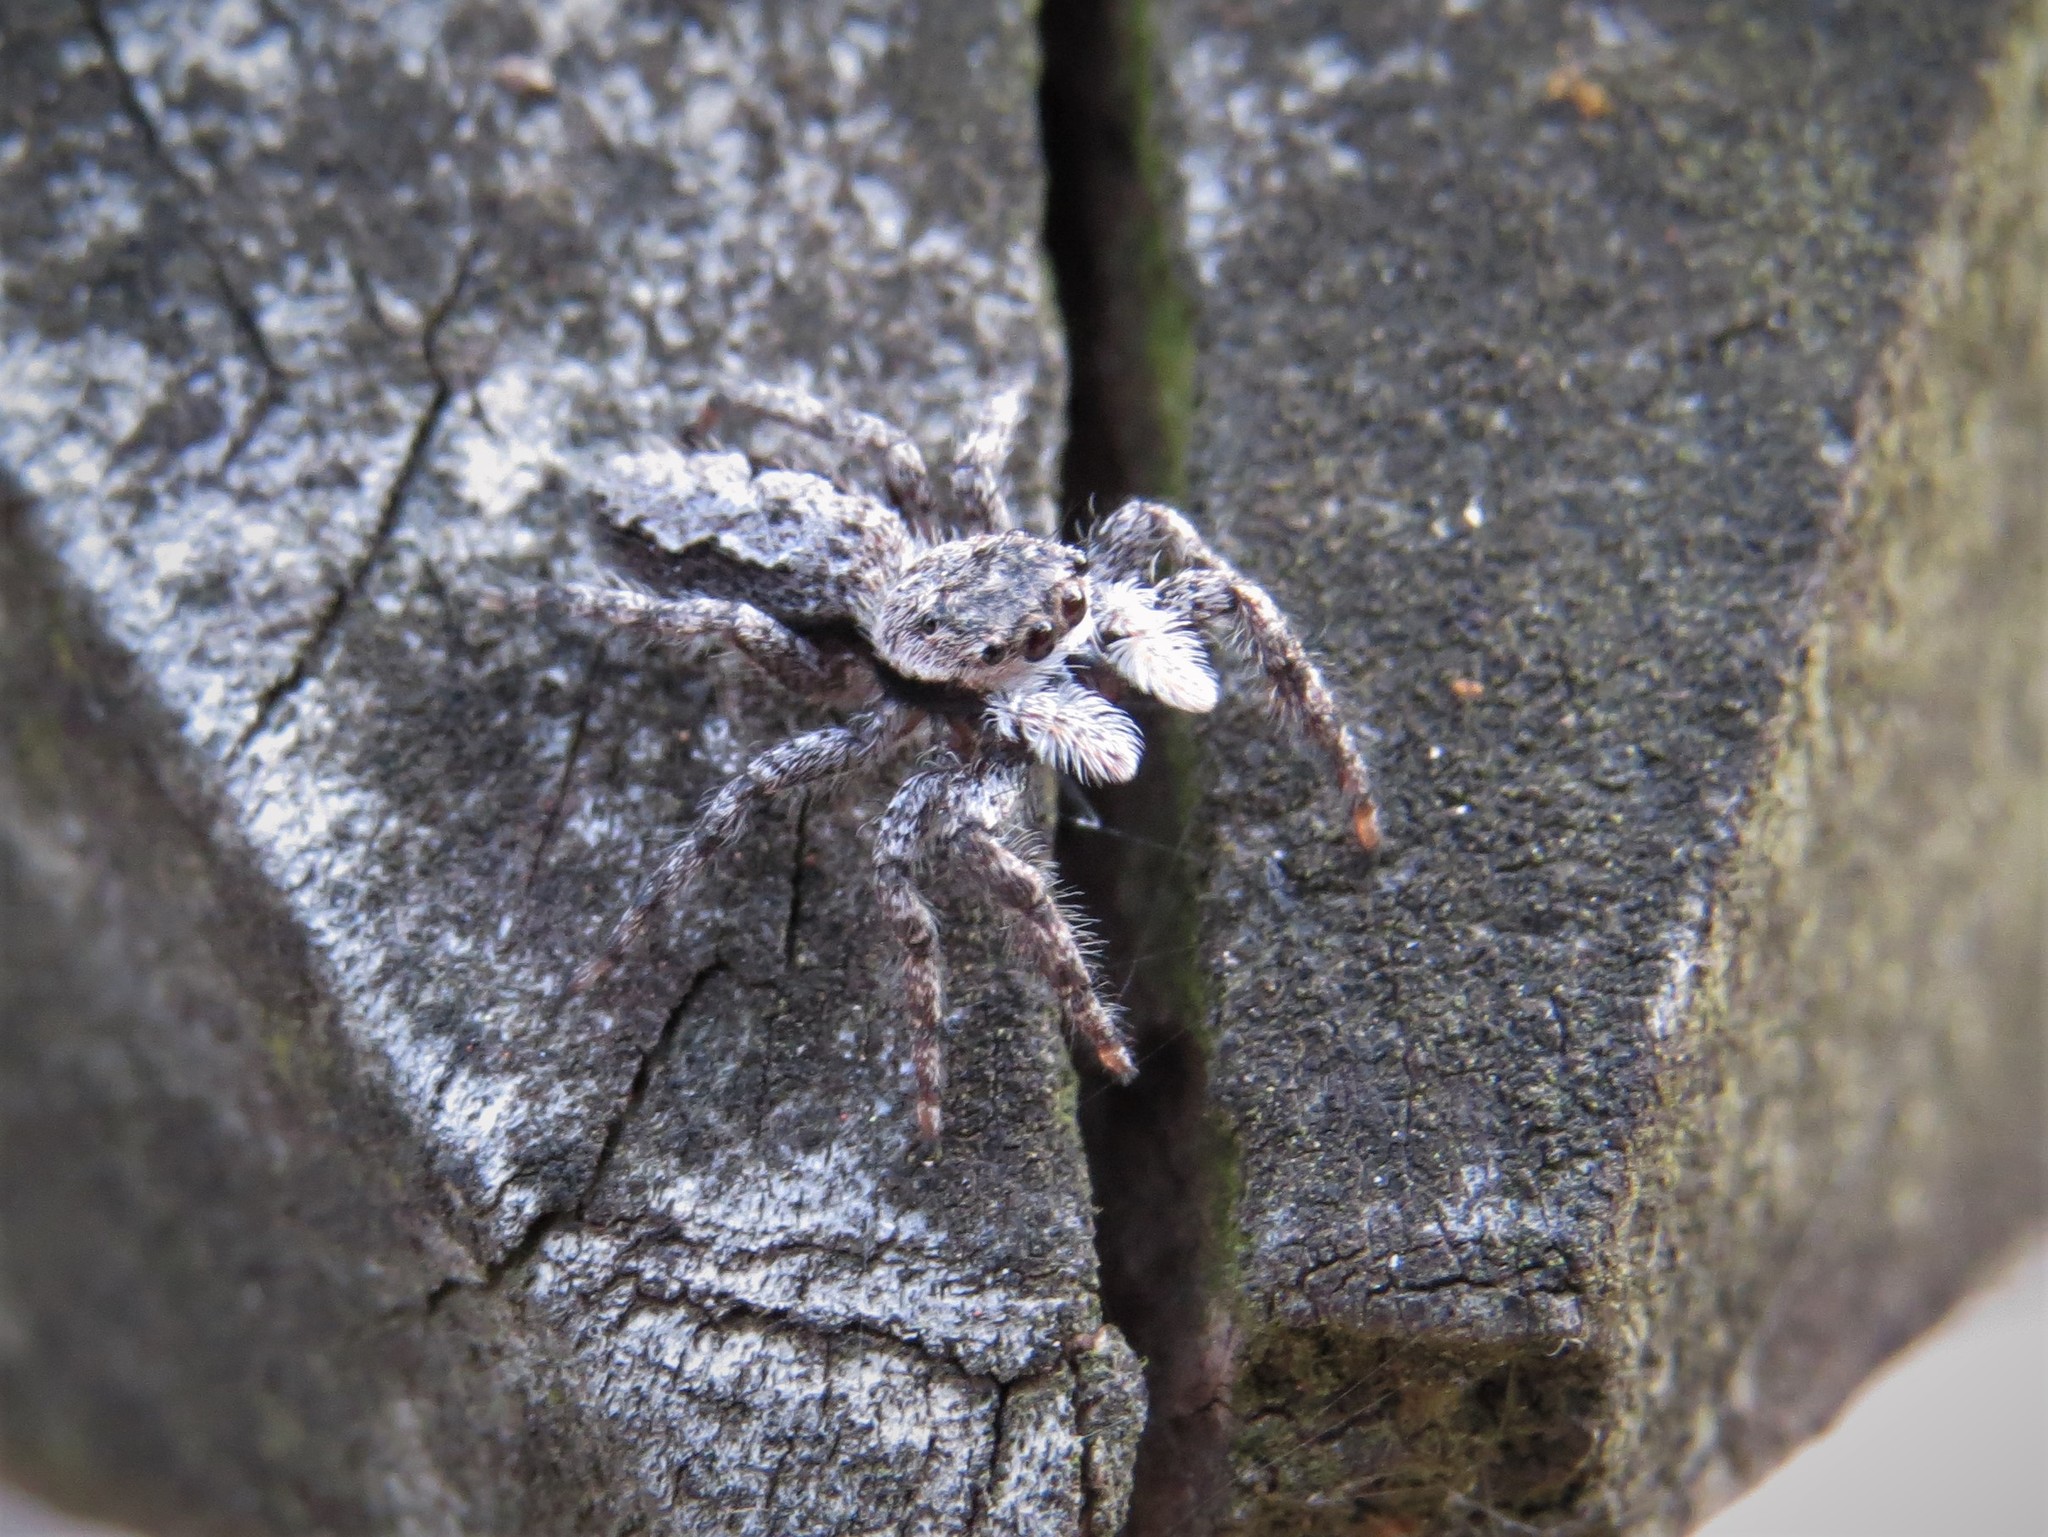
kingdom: Animalia
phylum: Arthropoda
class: Arachnida
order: Araneae
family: Salticidae
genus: Platycryptus
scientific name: Platycryptus undatus
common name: Tan jumping spider
